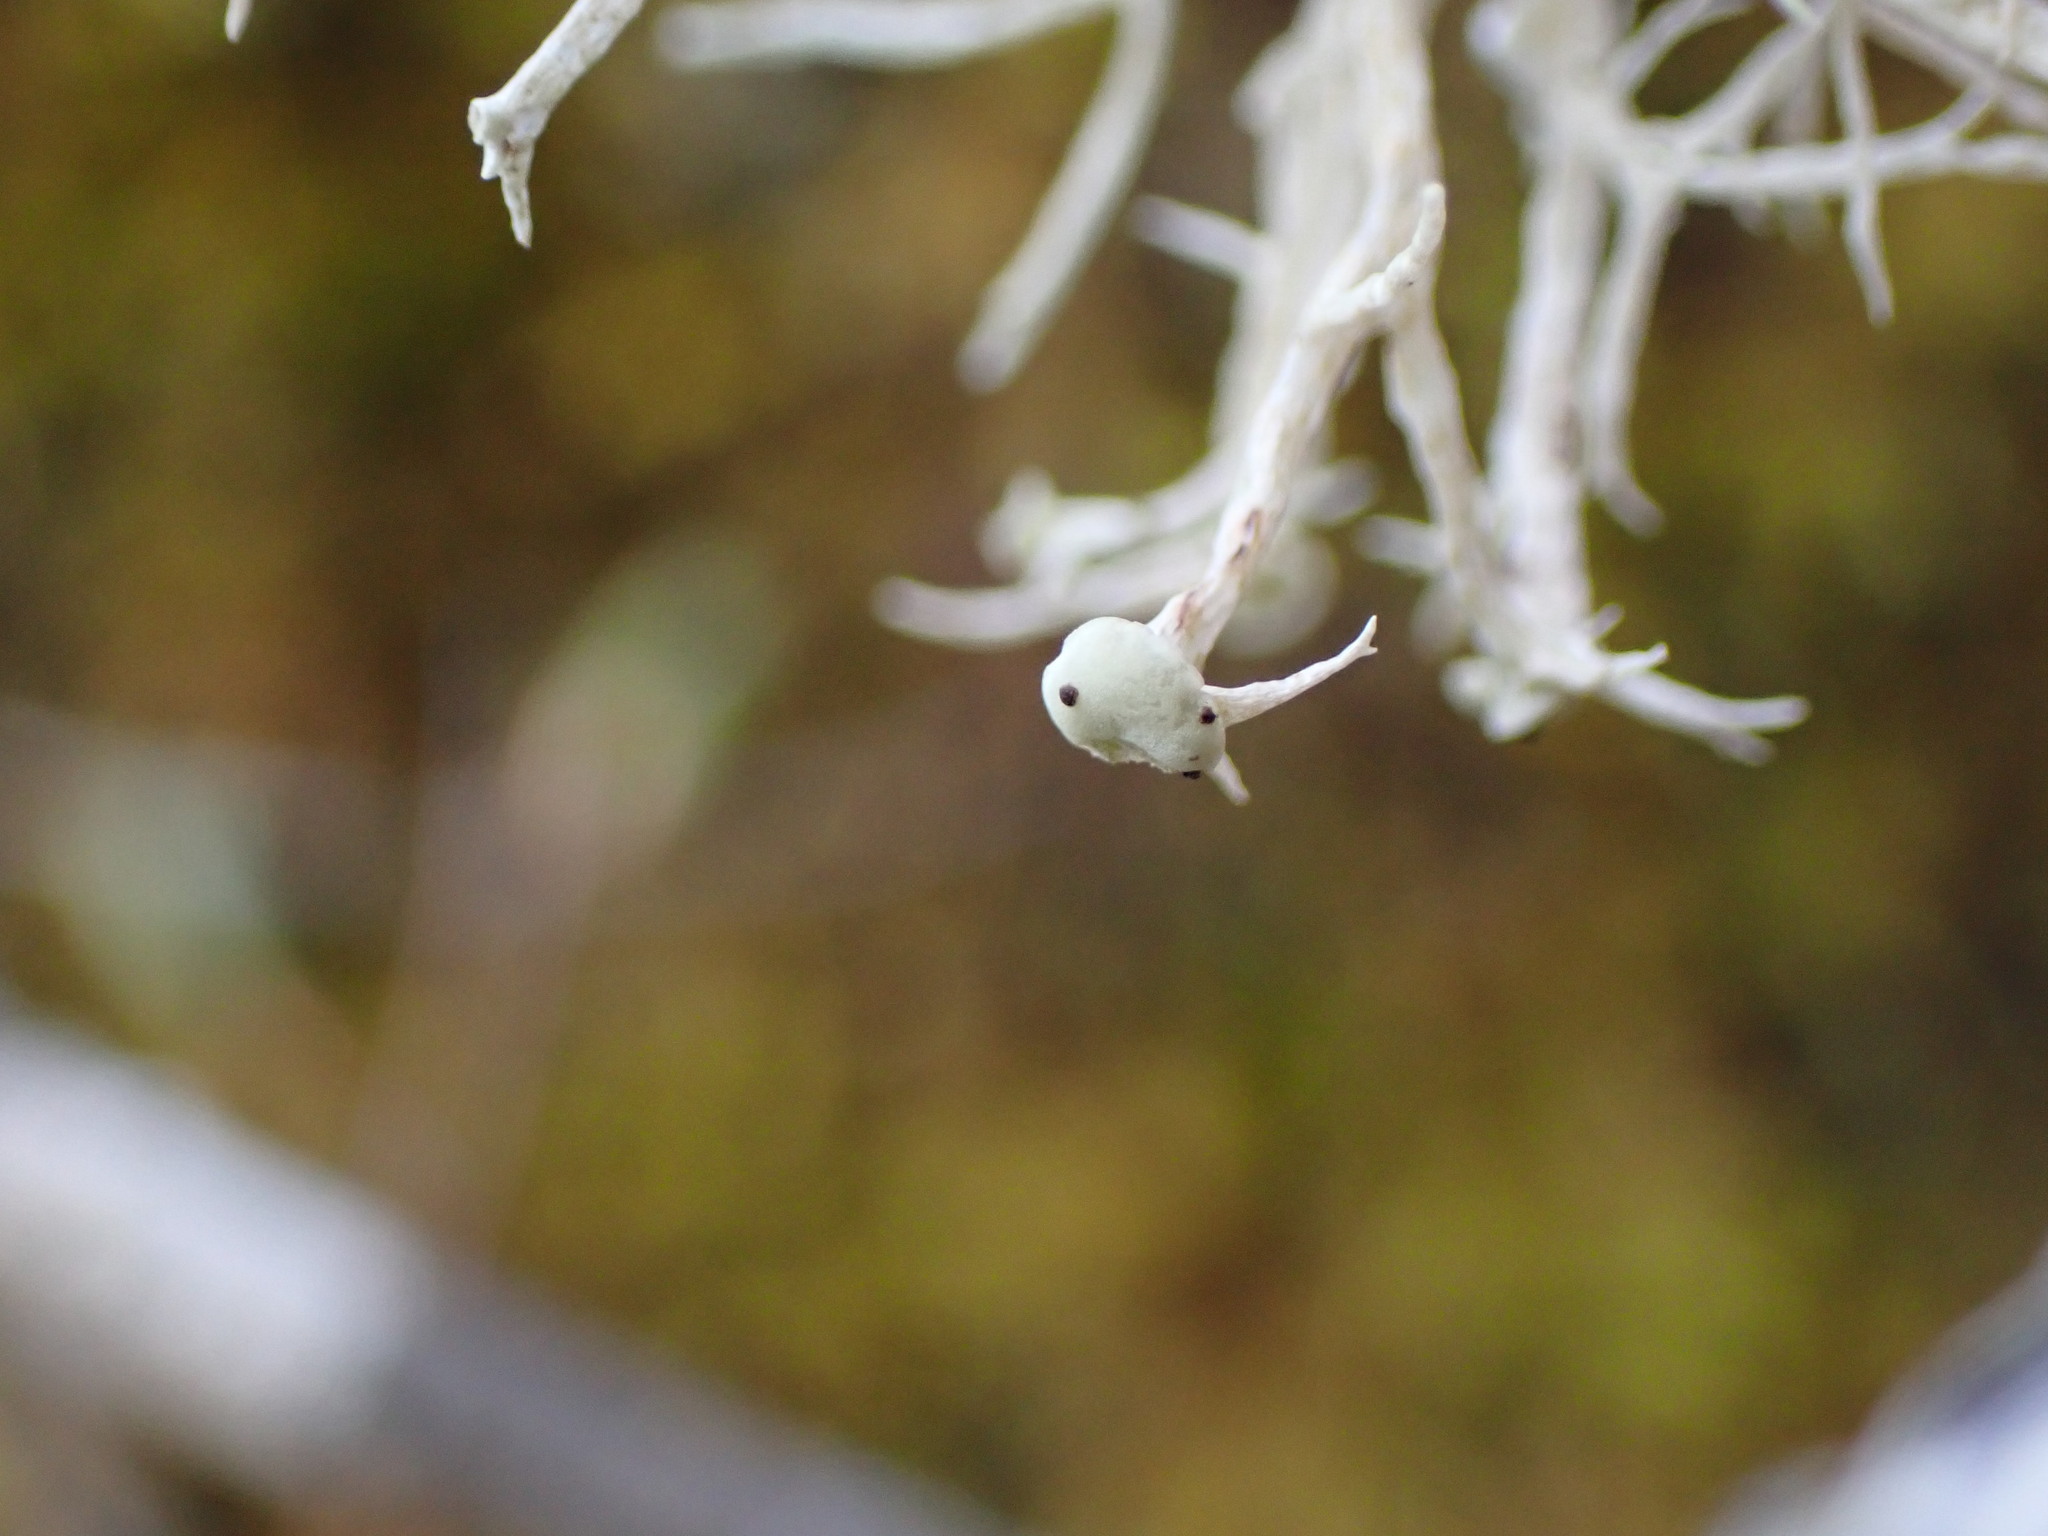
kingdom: Fungi
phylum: Ascomycota
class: Lecanoromycetes
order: Lecanorales
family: Ramalinaceae
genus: Ramalina
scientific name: Ramalina dilacerata
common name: Punctured bushy lichen
